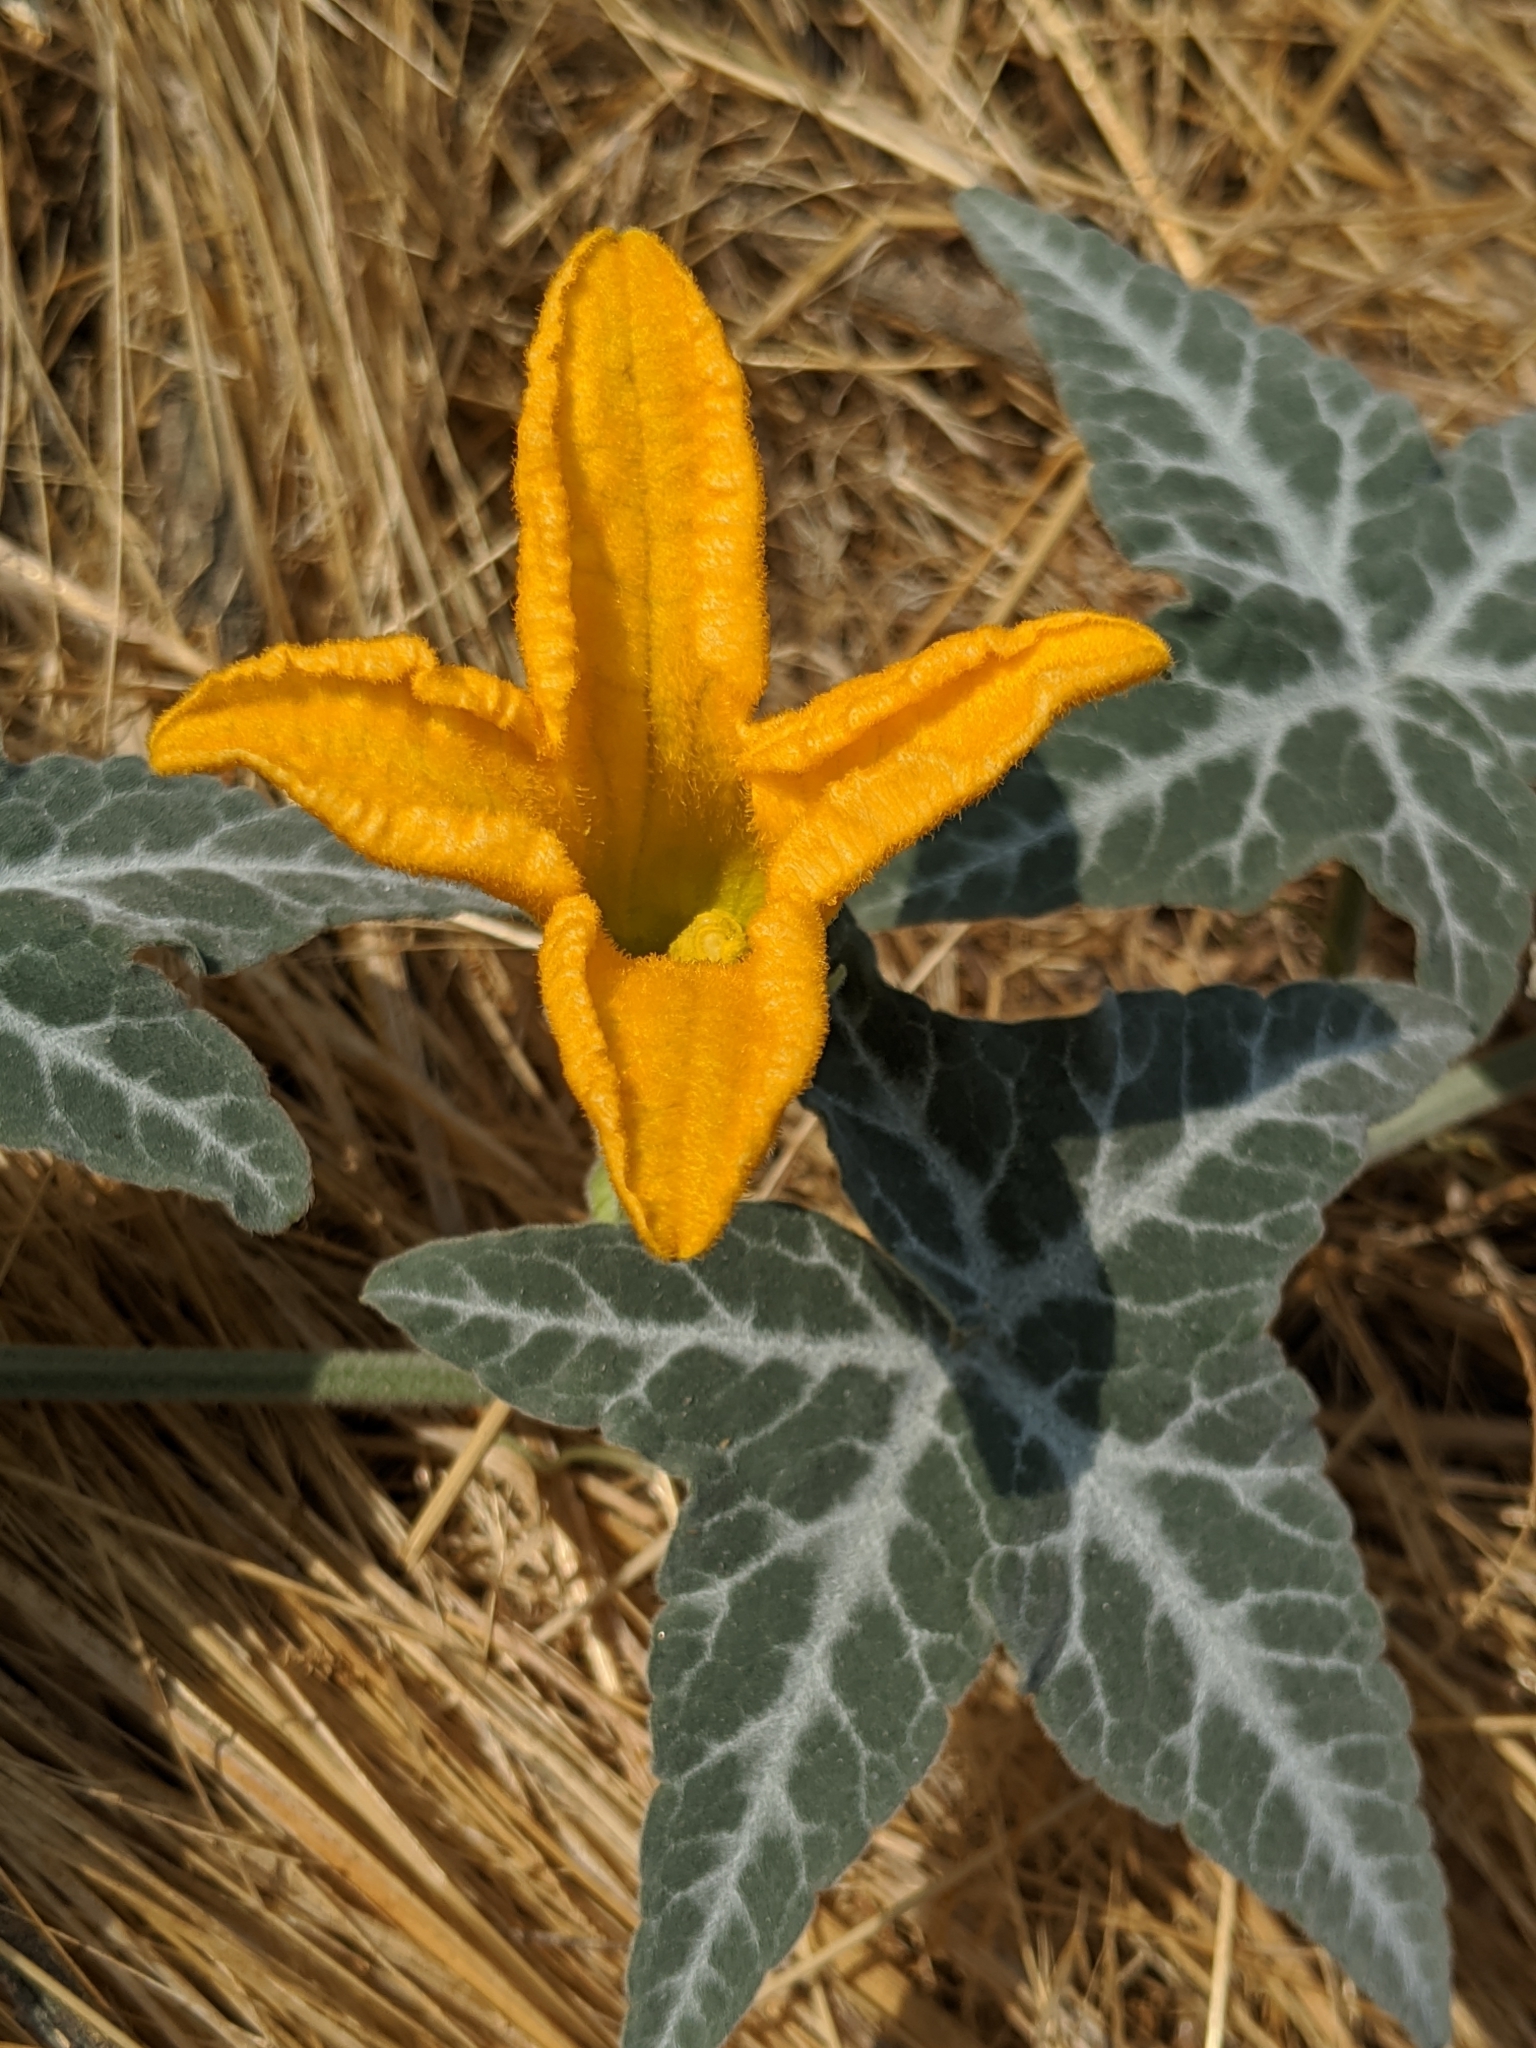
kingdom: Plantae
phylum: Tracheophyta
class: Magnoliopsida
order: Cucurbitales
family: Cucurbitaceae
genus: Cucurbita
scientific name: Cucurbita palmata
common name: Coyote-melon
